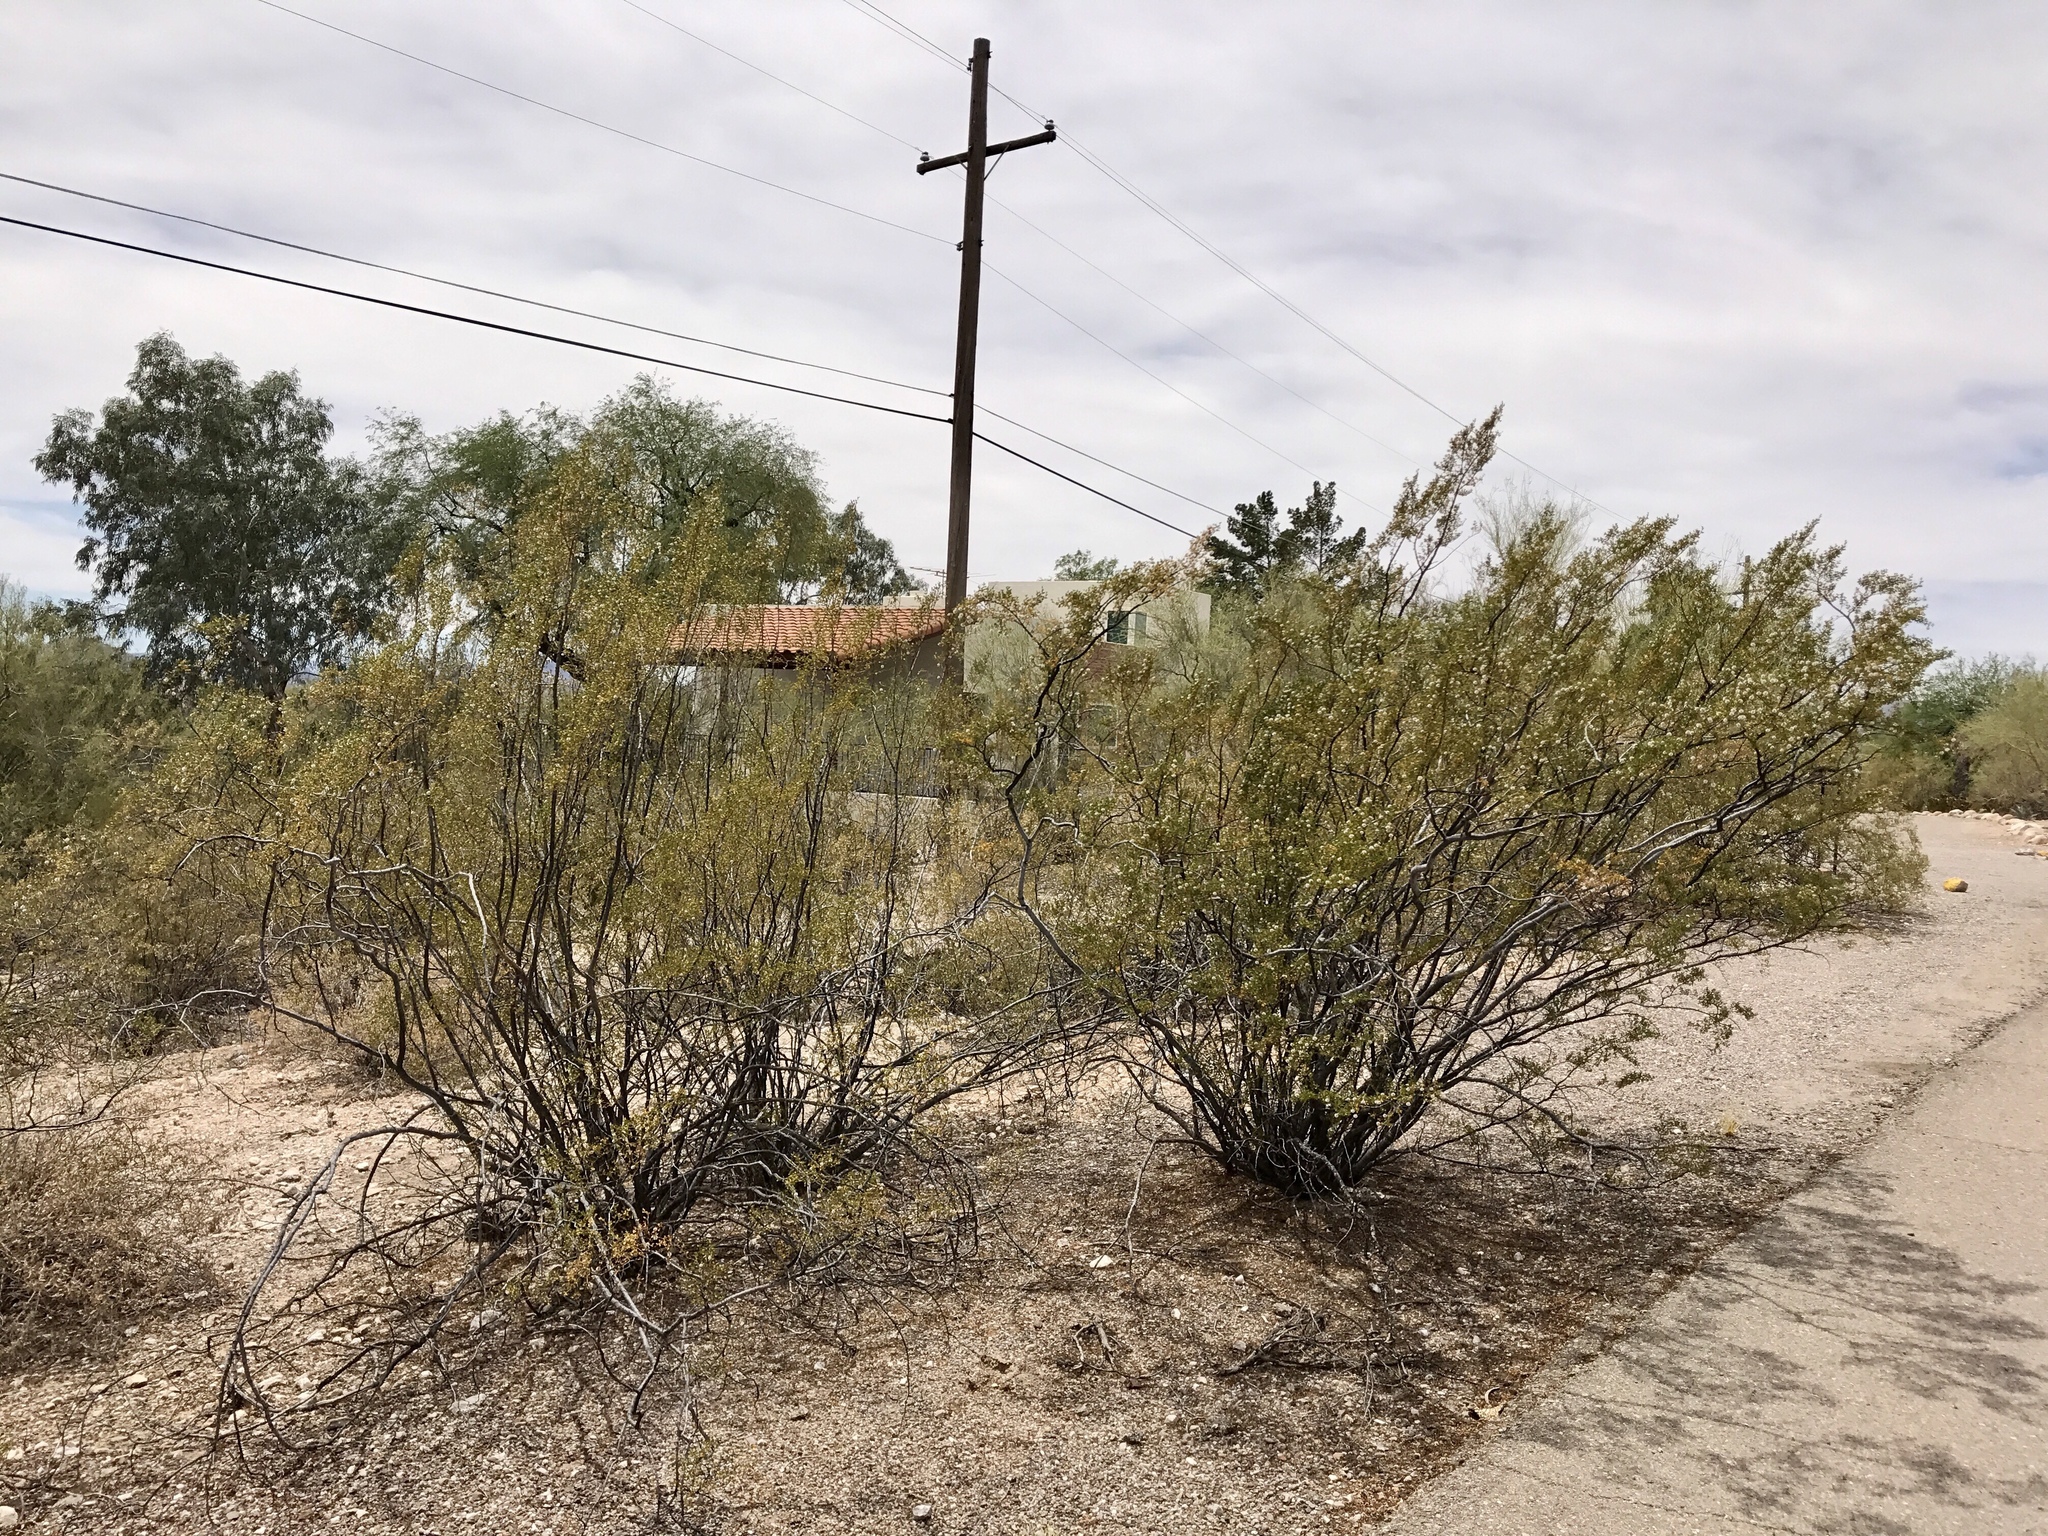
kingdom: Plantae
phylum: Tracheophyta
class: Magnoliopsida
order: Zygophyllales
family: Zygophyllaceae
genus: Larrea
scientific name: Larrea tridentata
